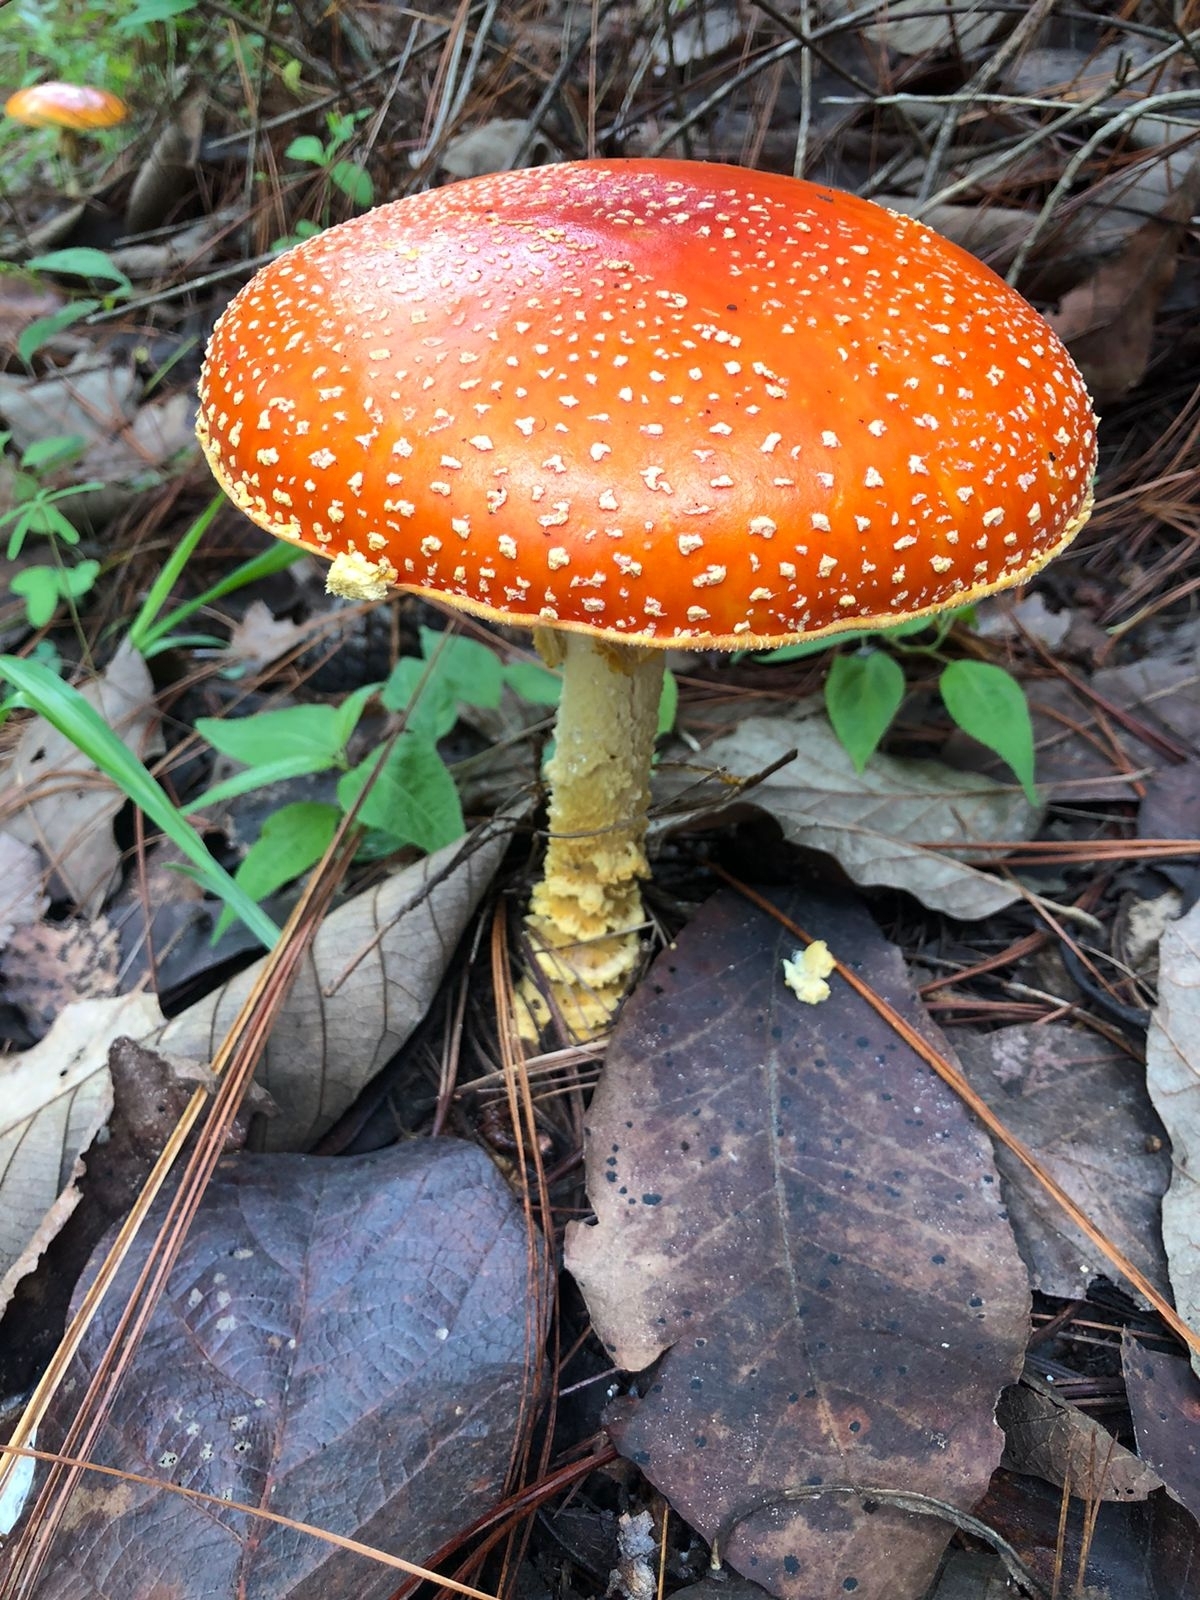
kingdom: Fungi
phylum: Basidiomycota
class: Agaricomycetes
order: Agaricales
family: Amanitaceae
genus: Amanita
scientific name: Amanita muscaria
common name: Fly agaric
